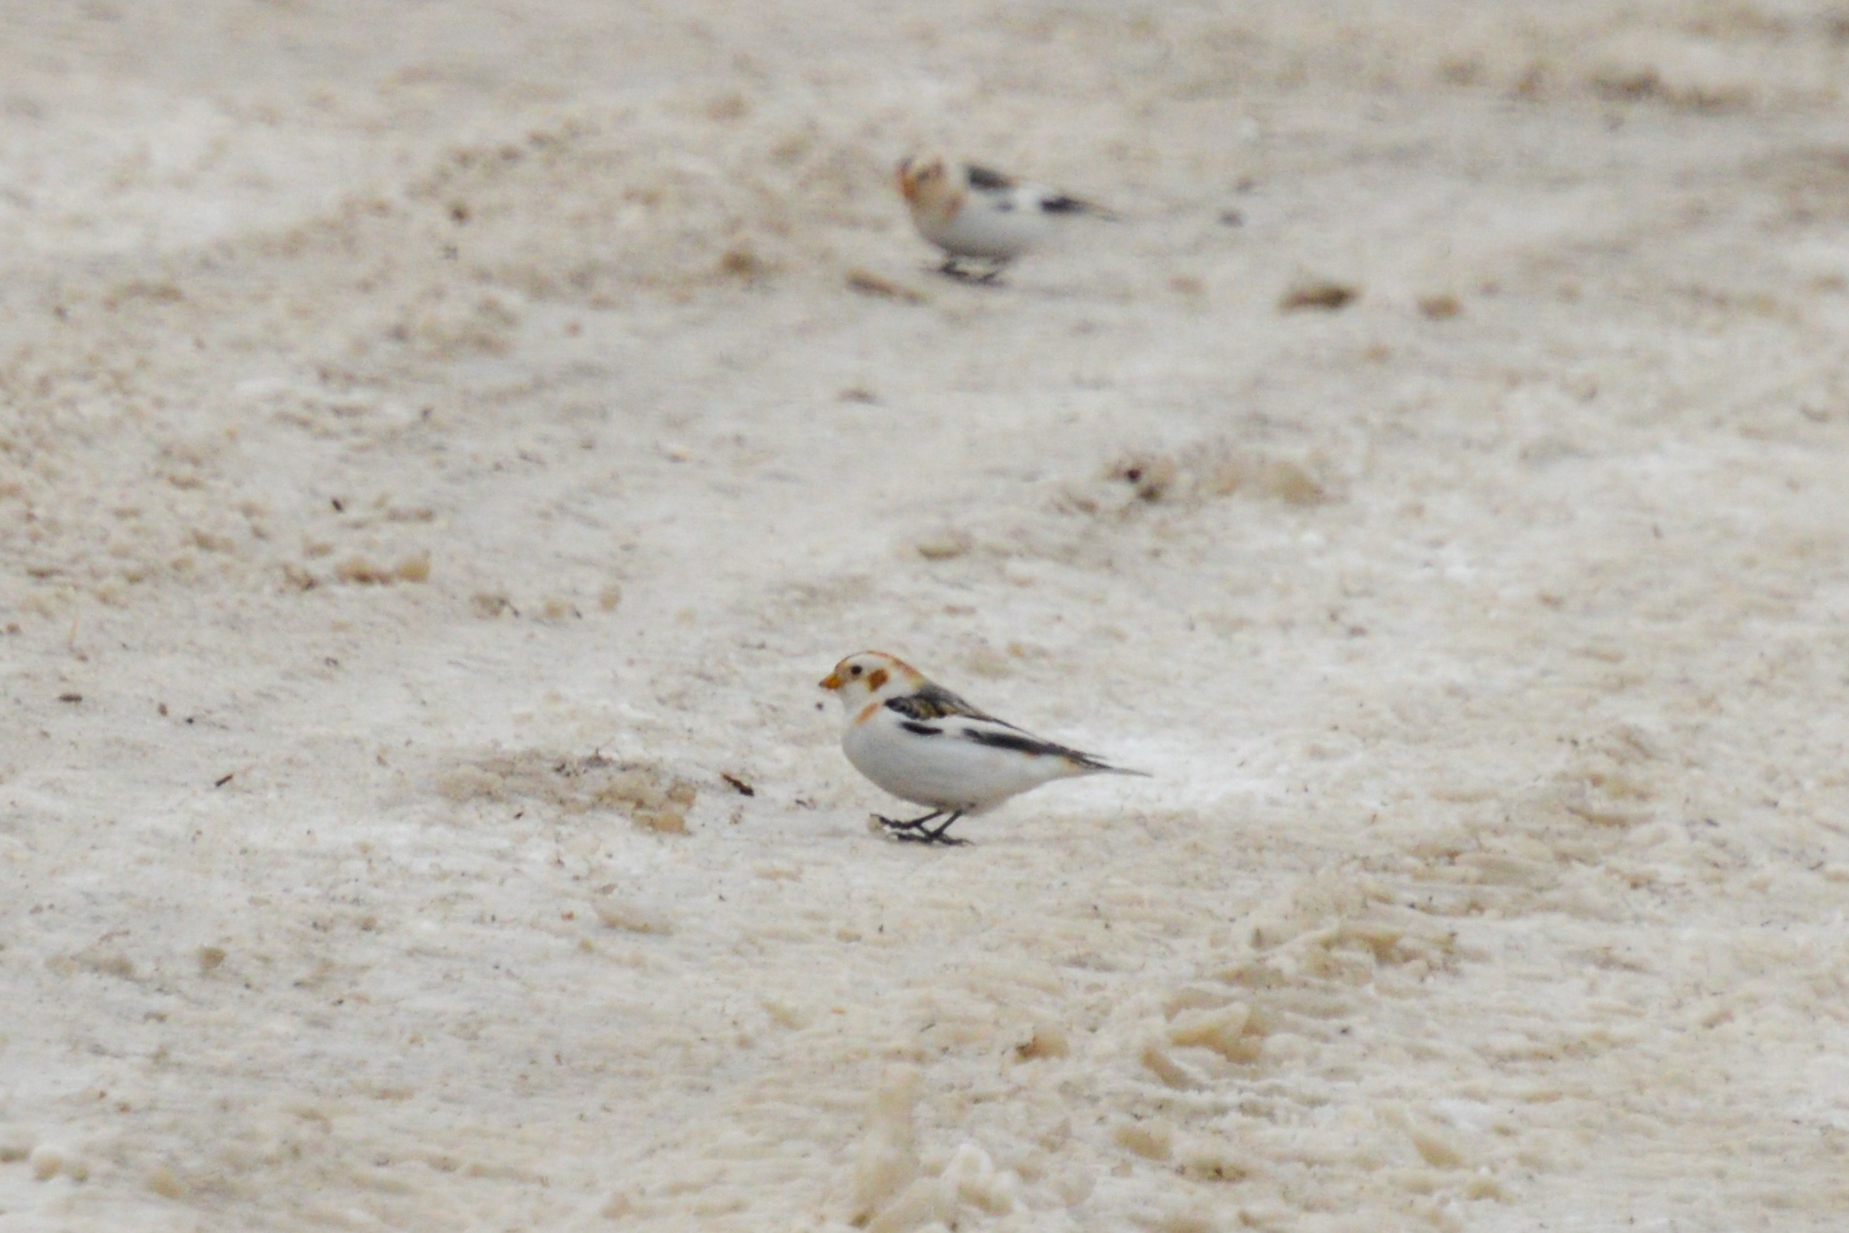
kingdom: Animalia
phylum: Chordata
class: Aves
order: Passeriformes
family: Calcariidae
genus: Plectrophenax
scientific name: Plectrophenax nivalis
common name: Snow bunting
